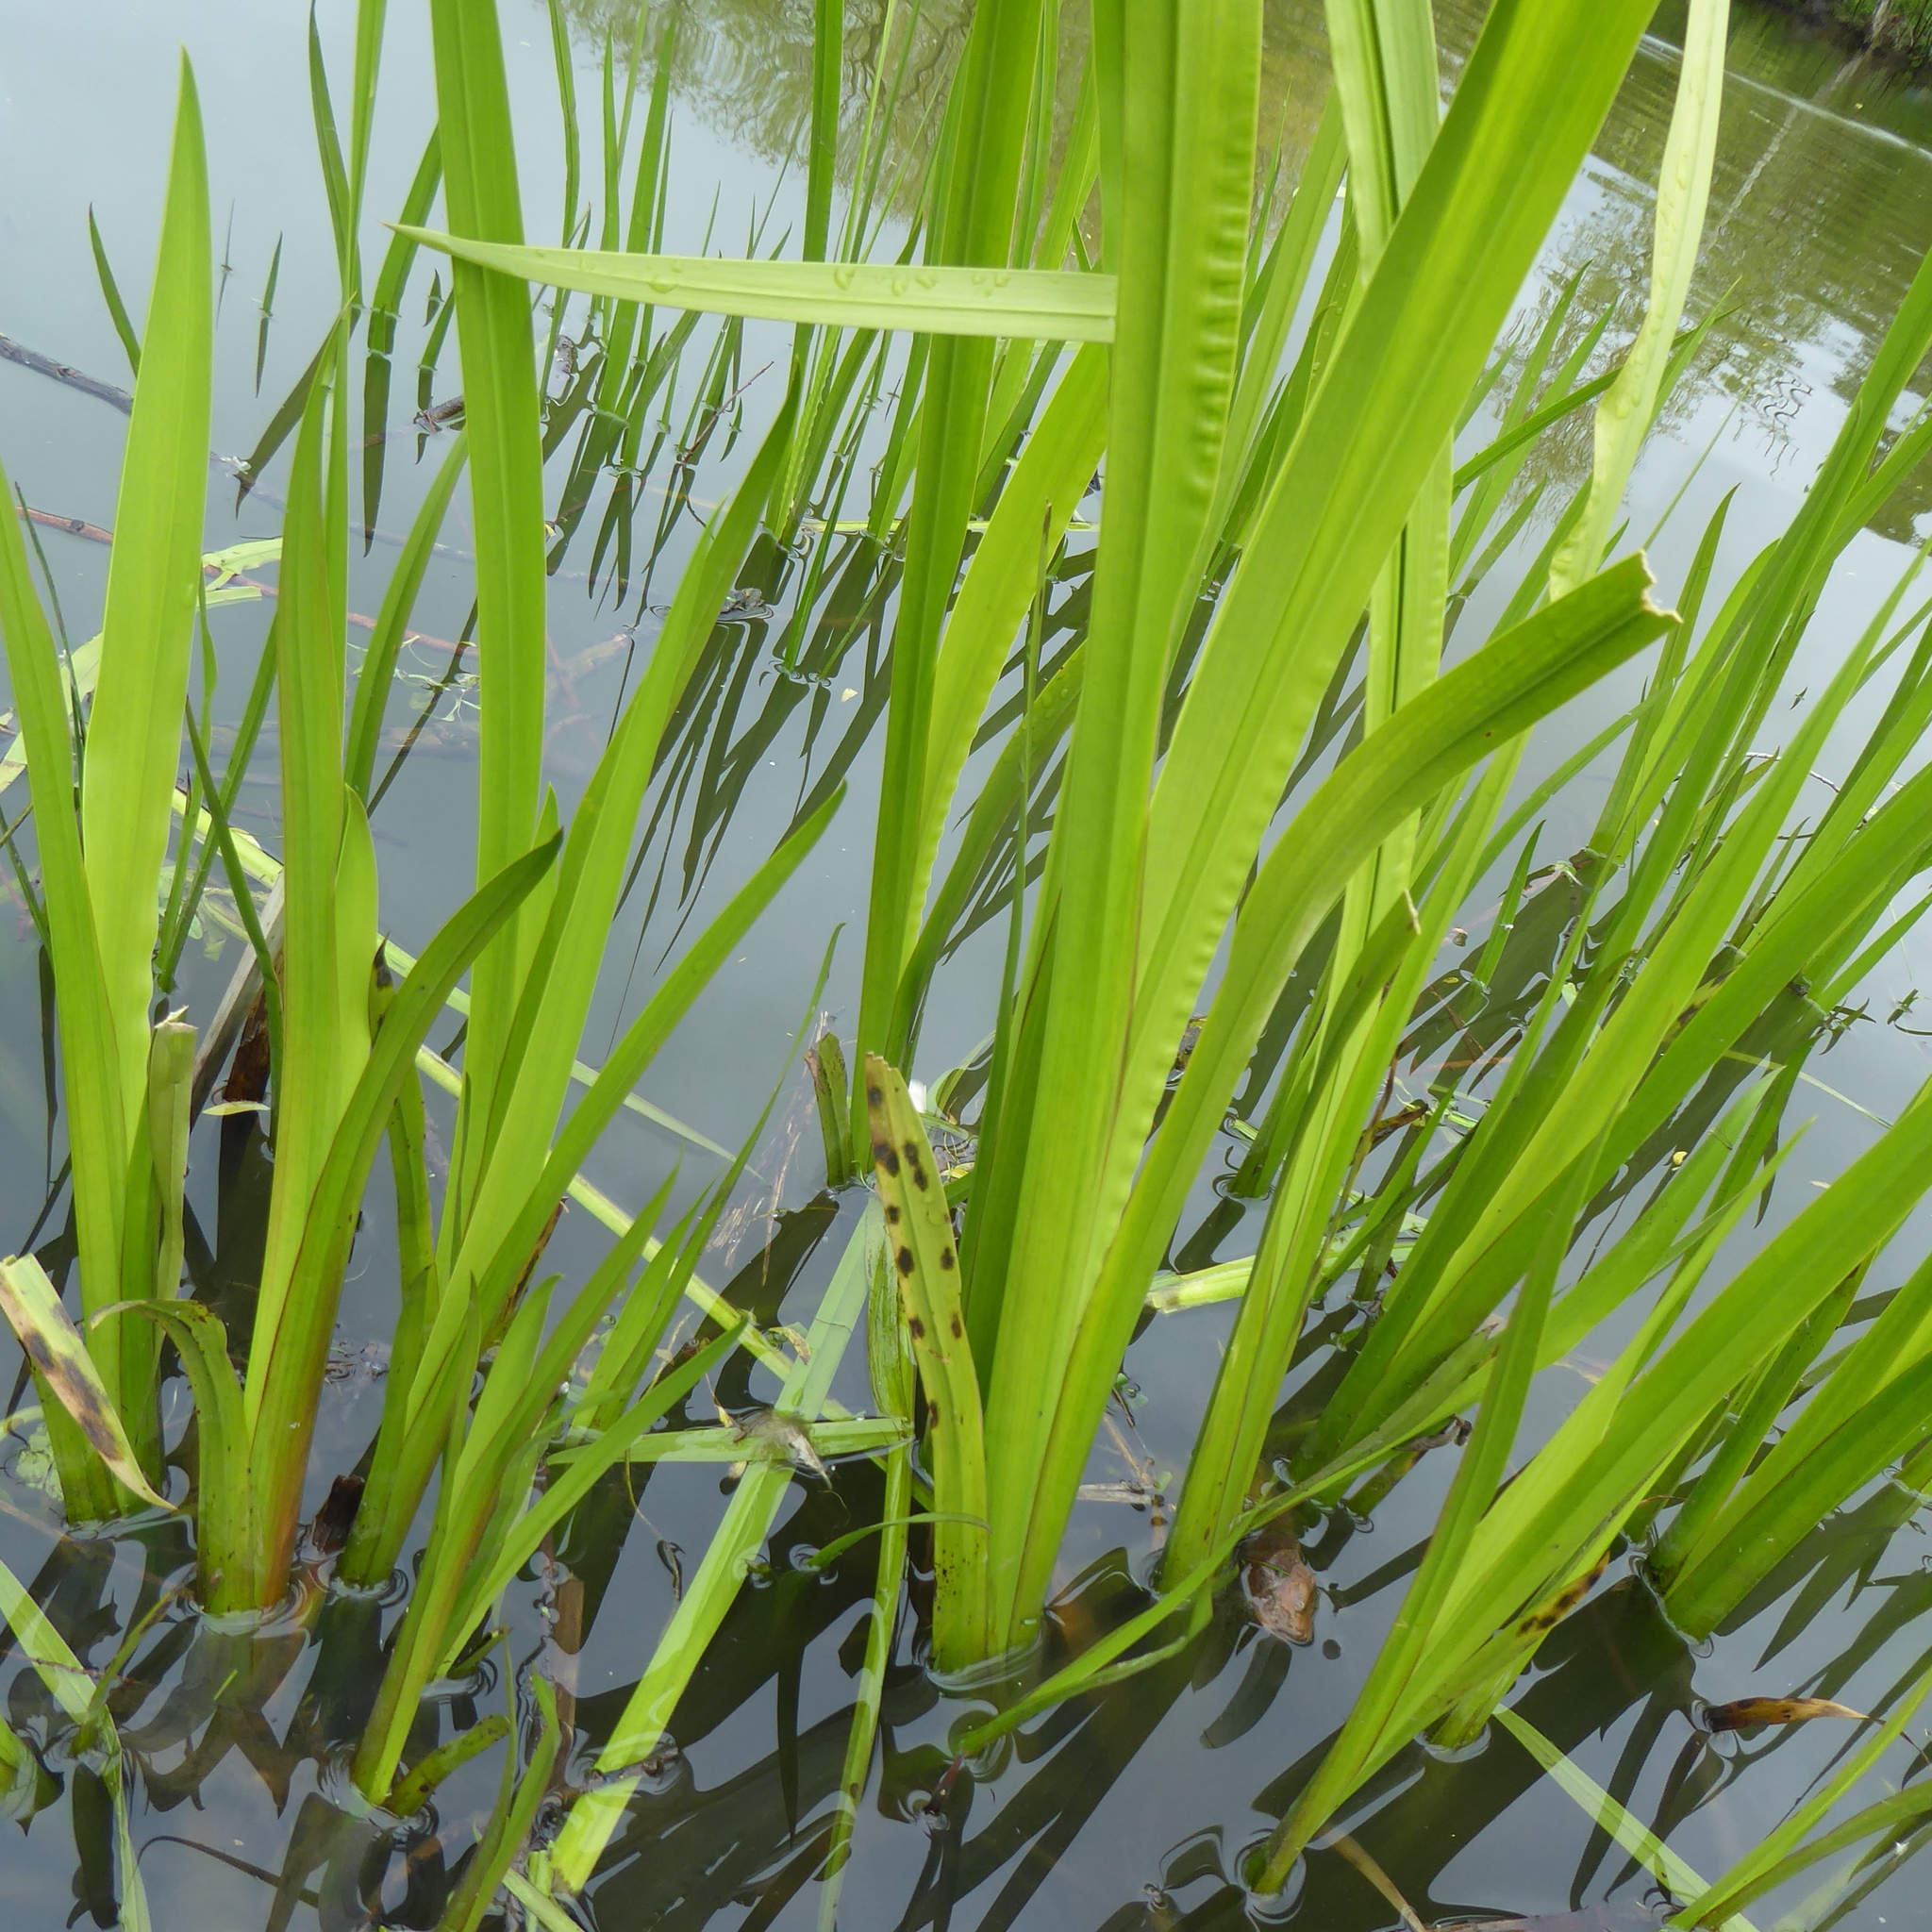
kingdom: Plantae
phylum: Tracheophyta
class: Liliopsida
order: Acorales
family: Acoraceae
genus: Acorus
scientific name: Acorus calamus
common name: Sweet-flag
